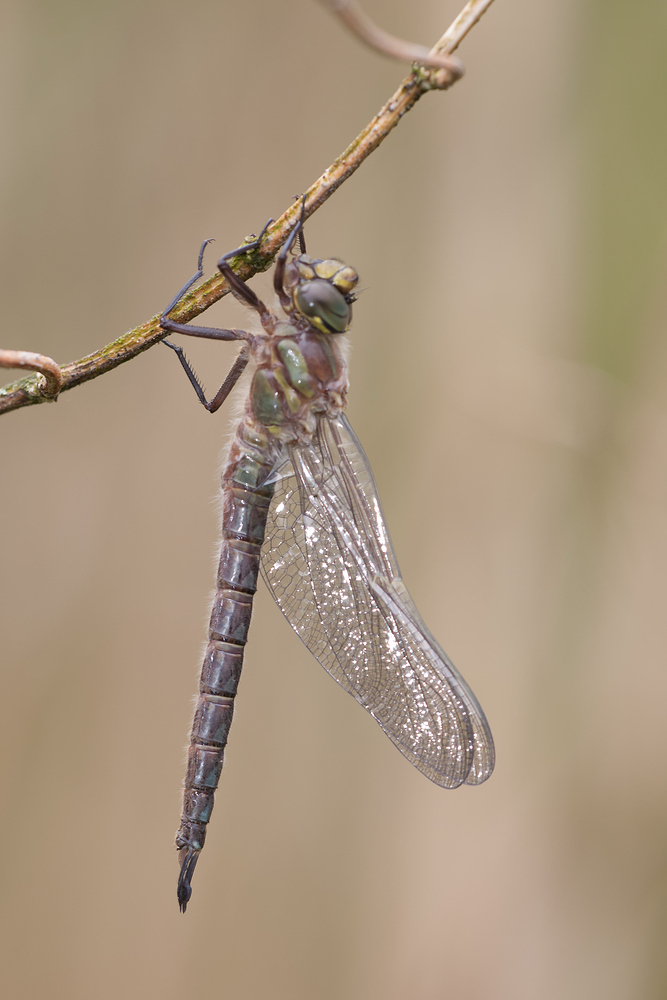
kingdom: Animalia
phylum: Arthropoda
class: Insecta
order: Odonata
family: Aeshnidae
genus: Brachytron
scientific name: Brachytron pratense
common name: Hairy hawker
